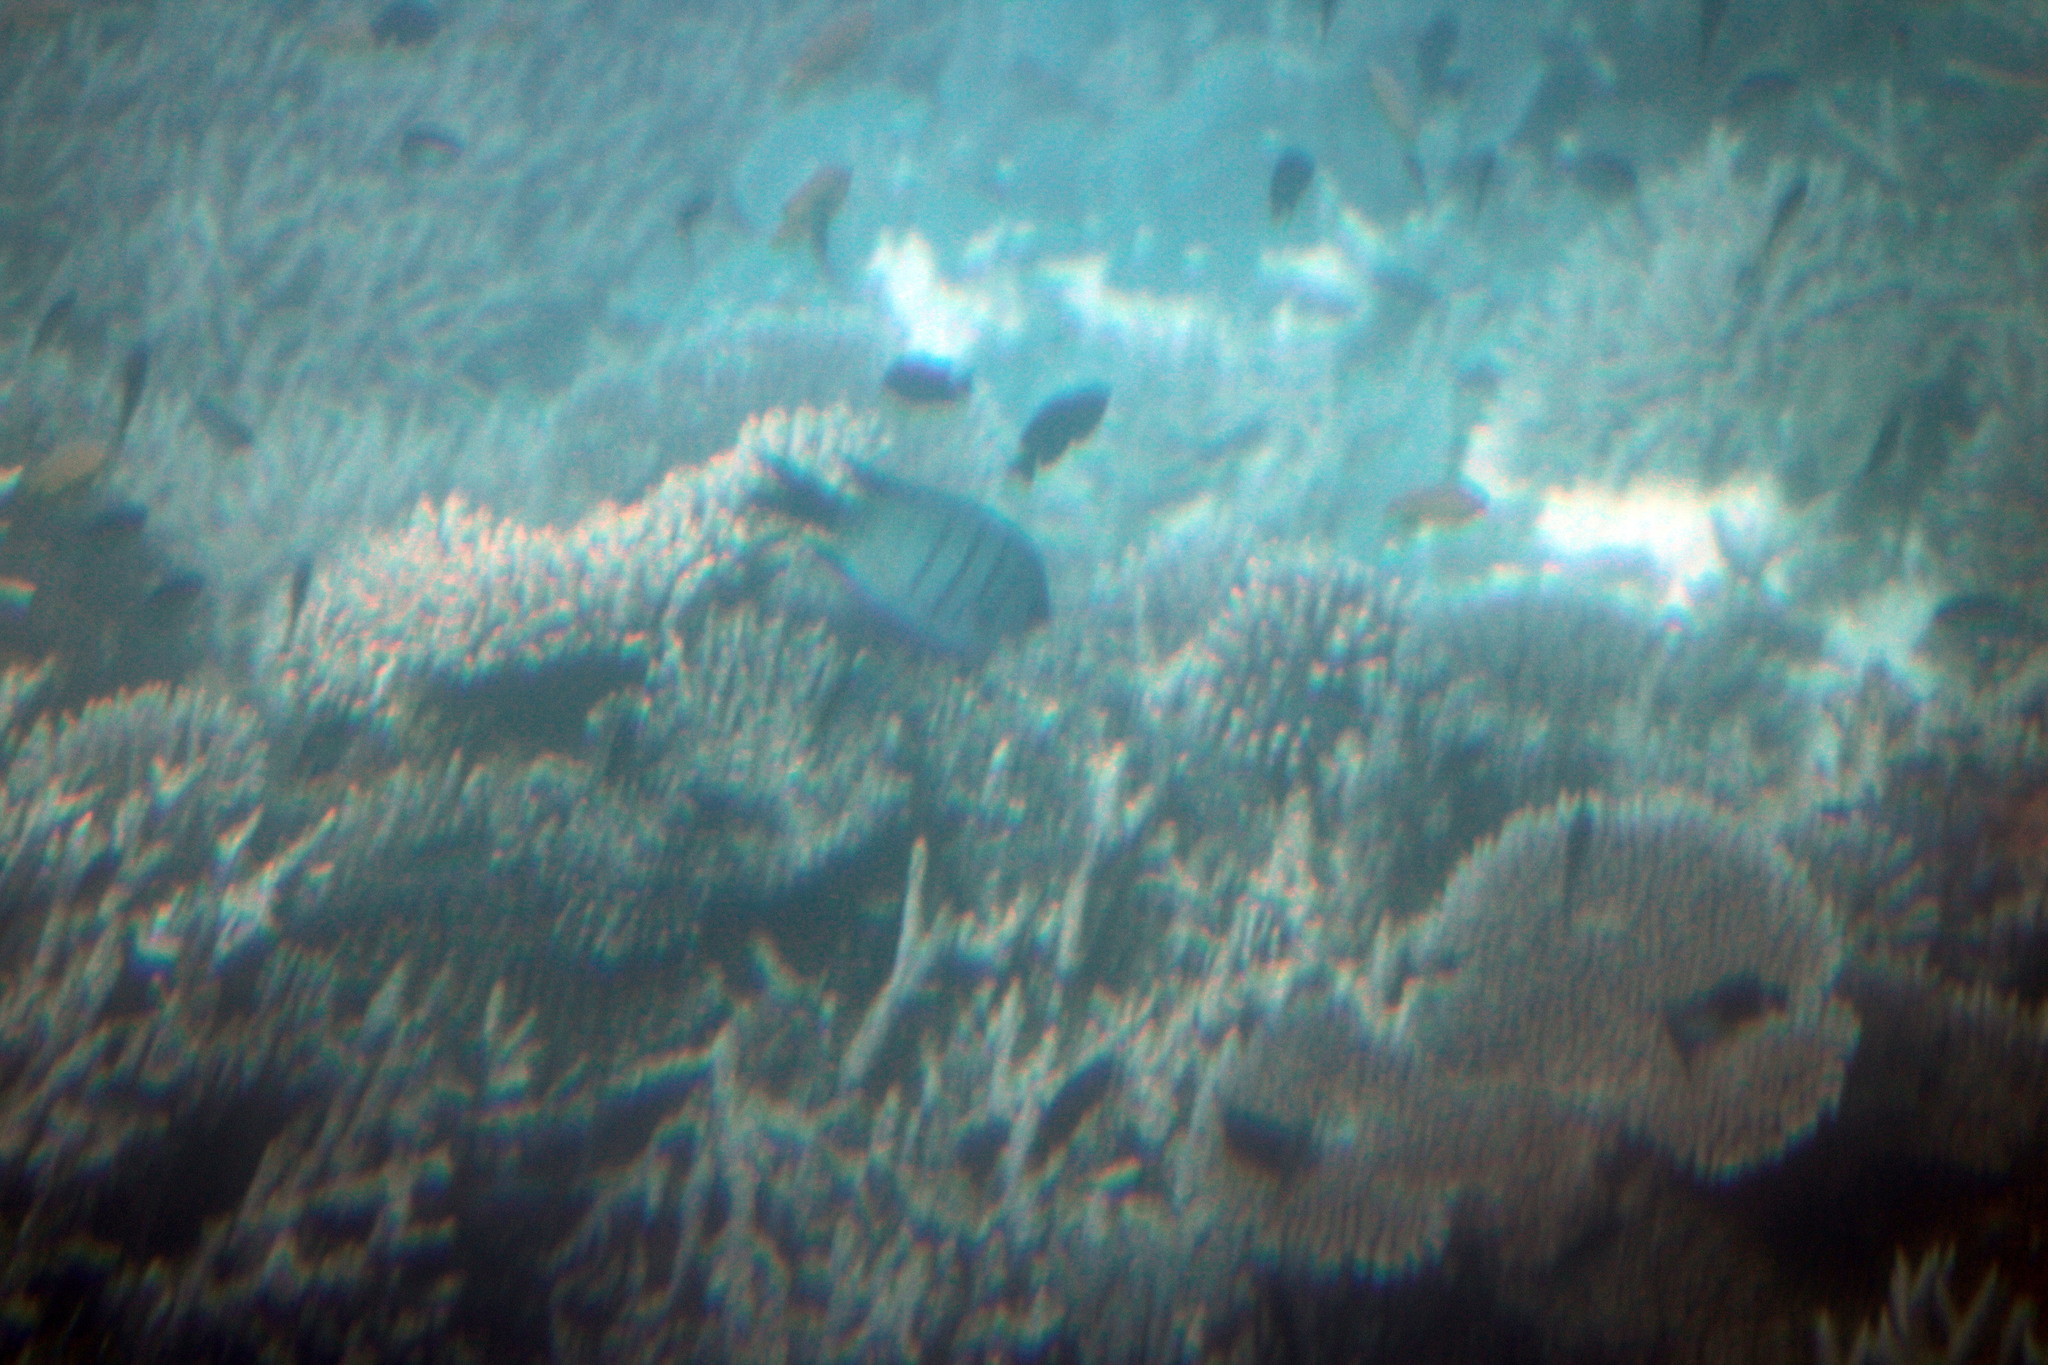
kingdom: Animalia
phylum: Chordata
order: Perciformes
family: Pomacentridae
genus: Abudefduf
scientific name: Abudefduf whitleyi
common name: Whitley's seargent
